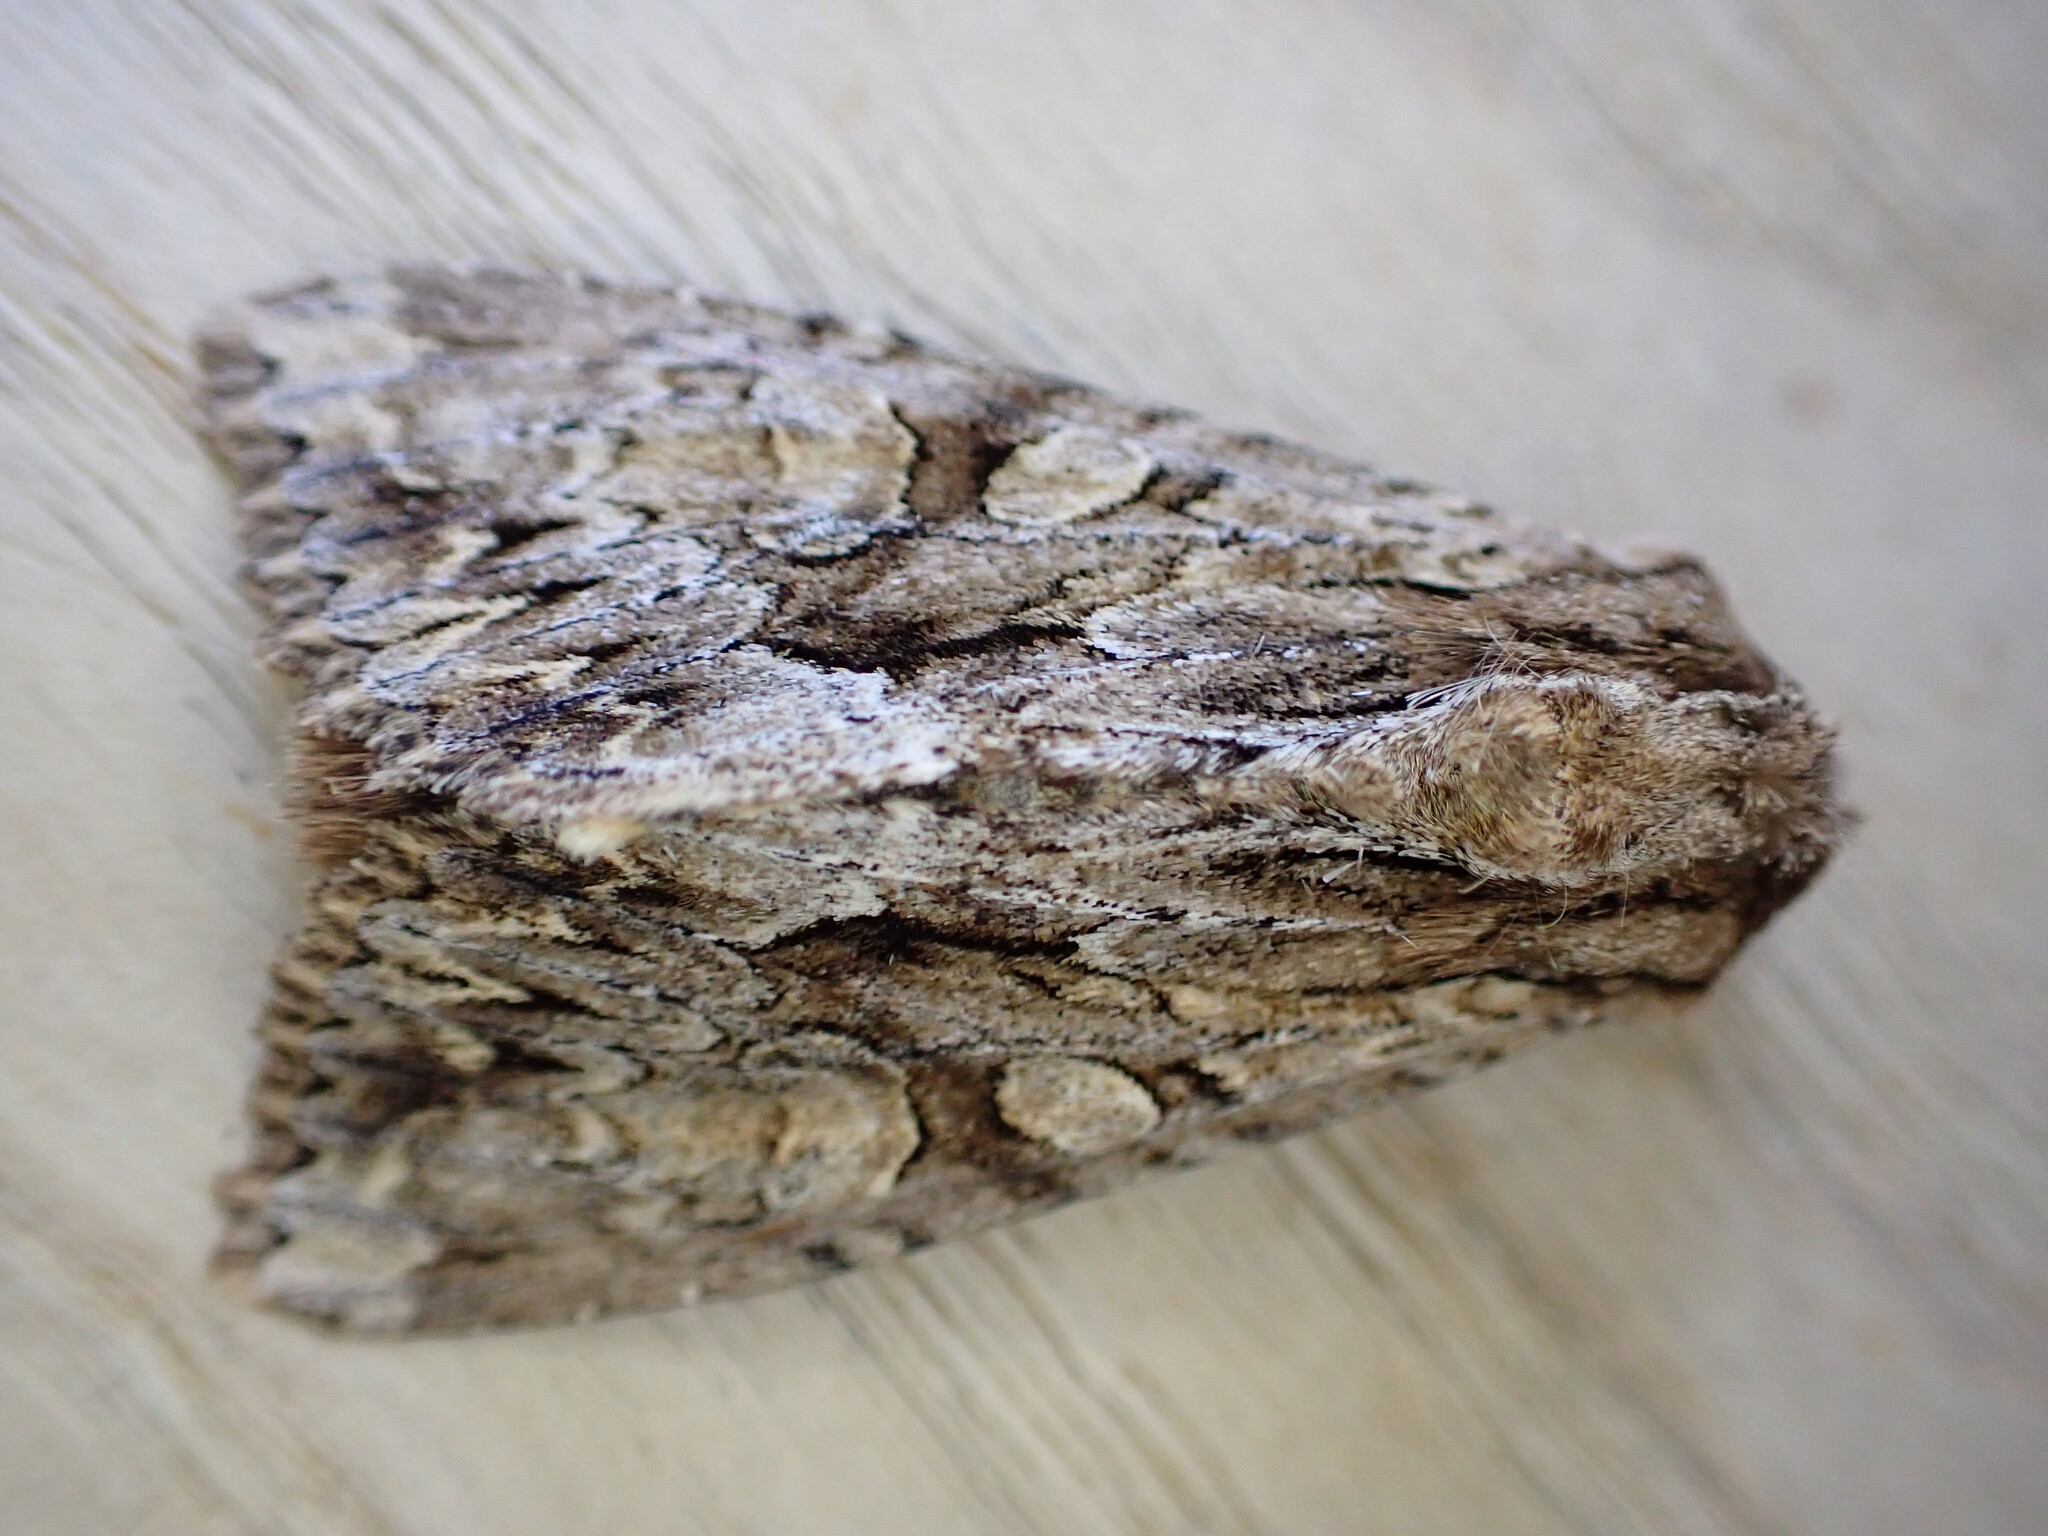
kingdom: Animalia
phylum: Arthropoda
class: Insecta
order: Lepidoptera
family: Noctuidae
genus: Apamea
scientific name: Apamea monoglypha
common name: Dark arches
